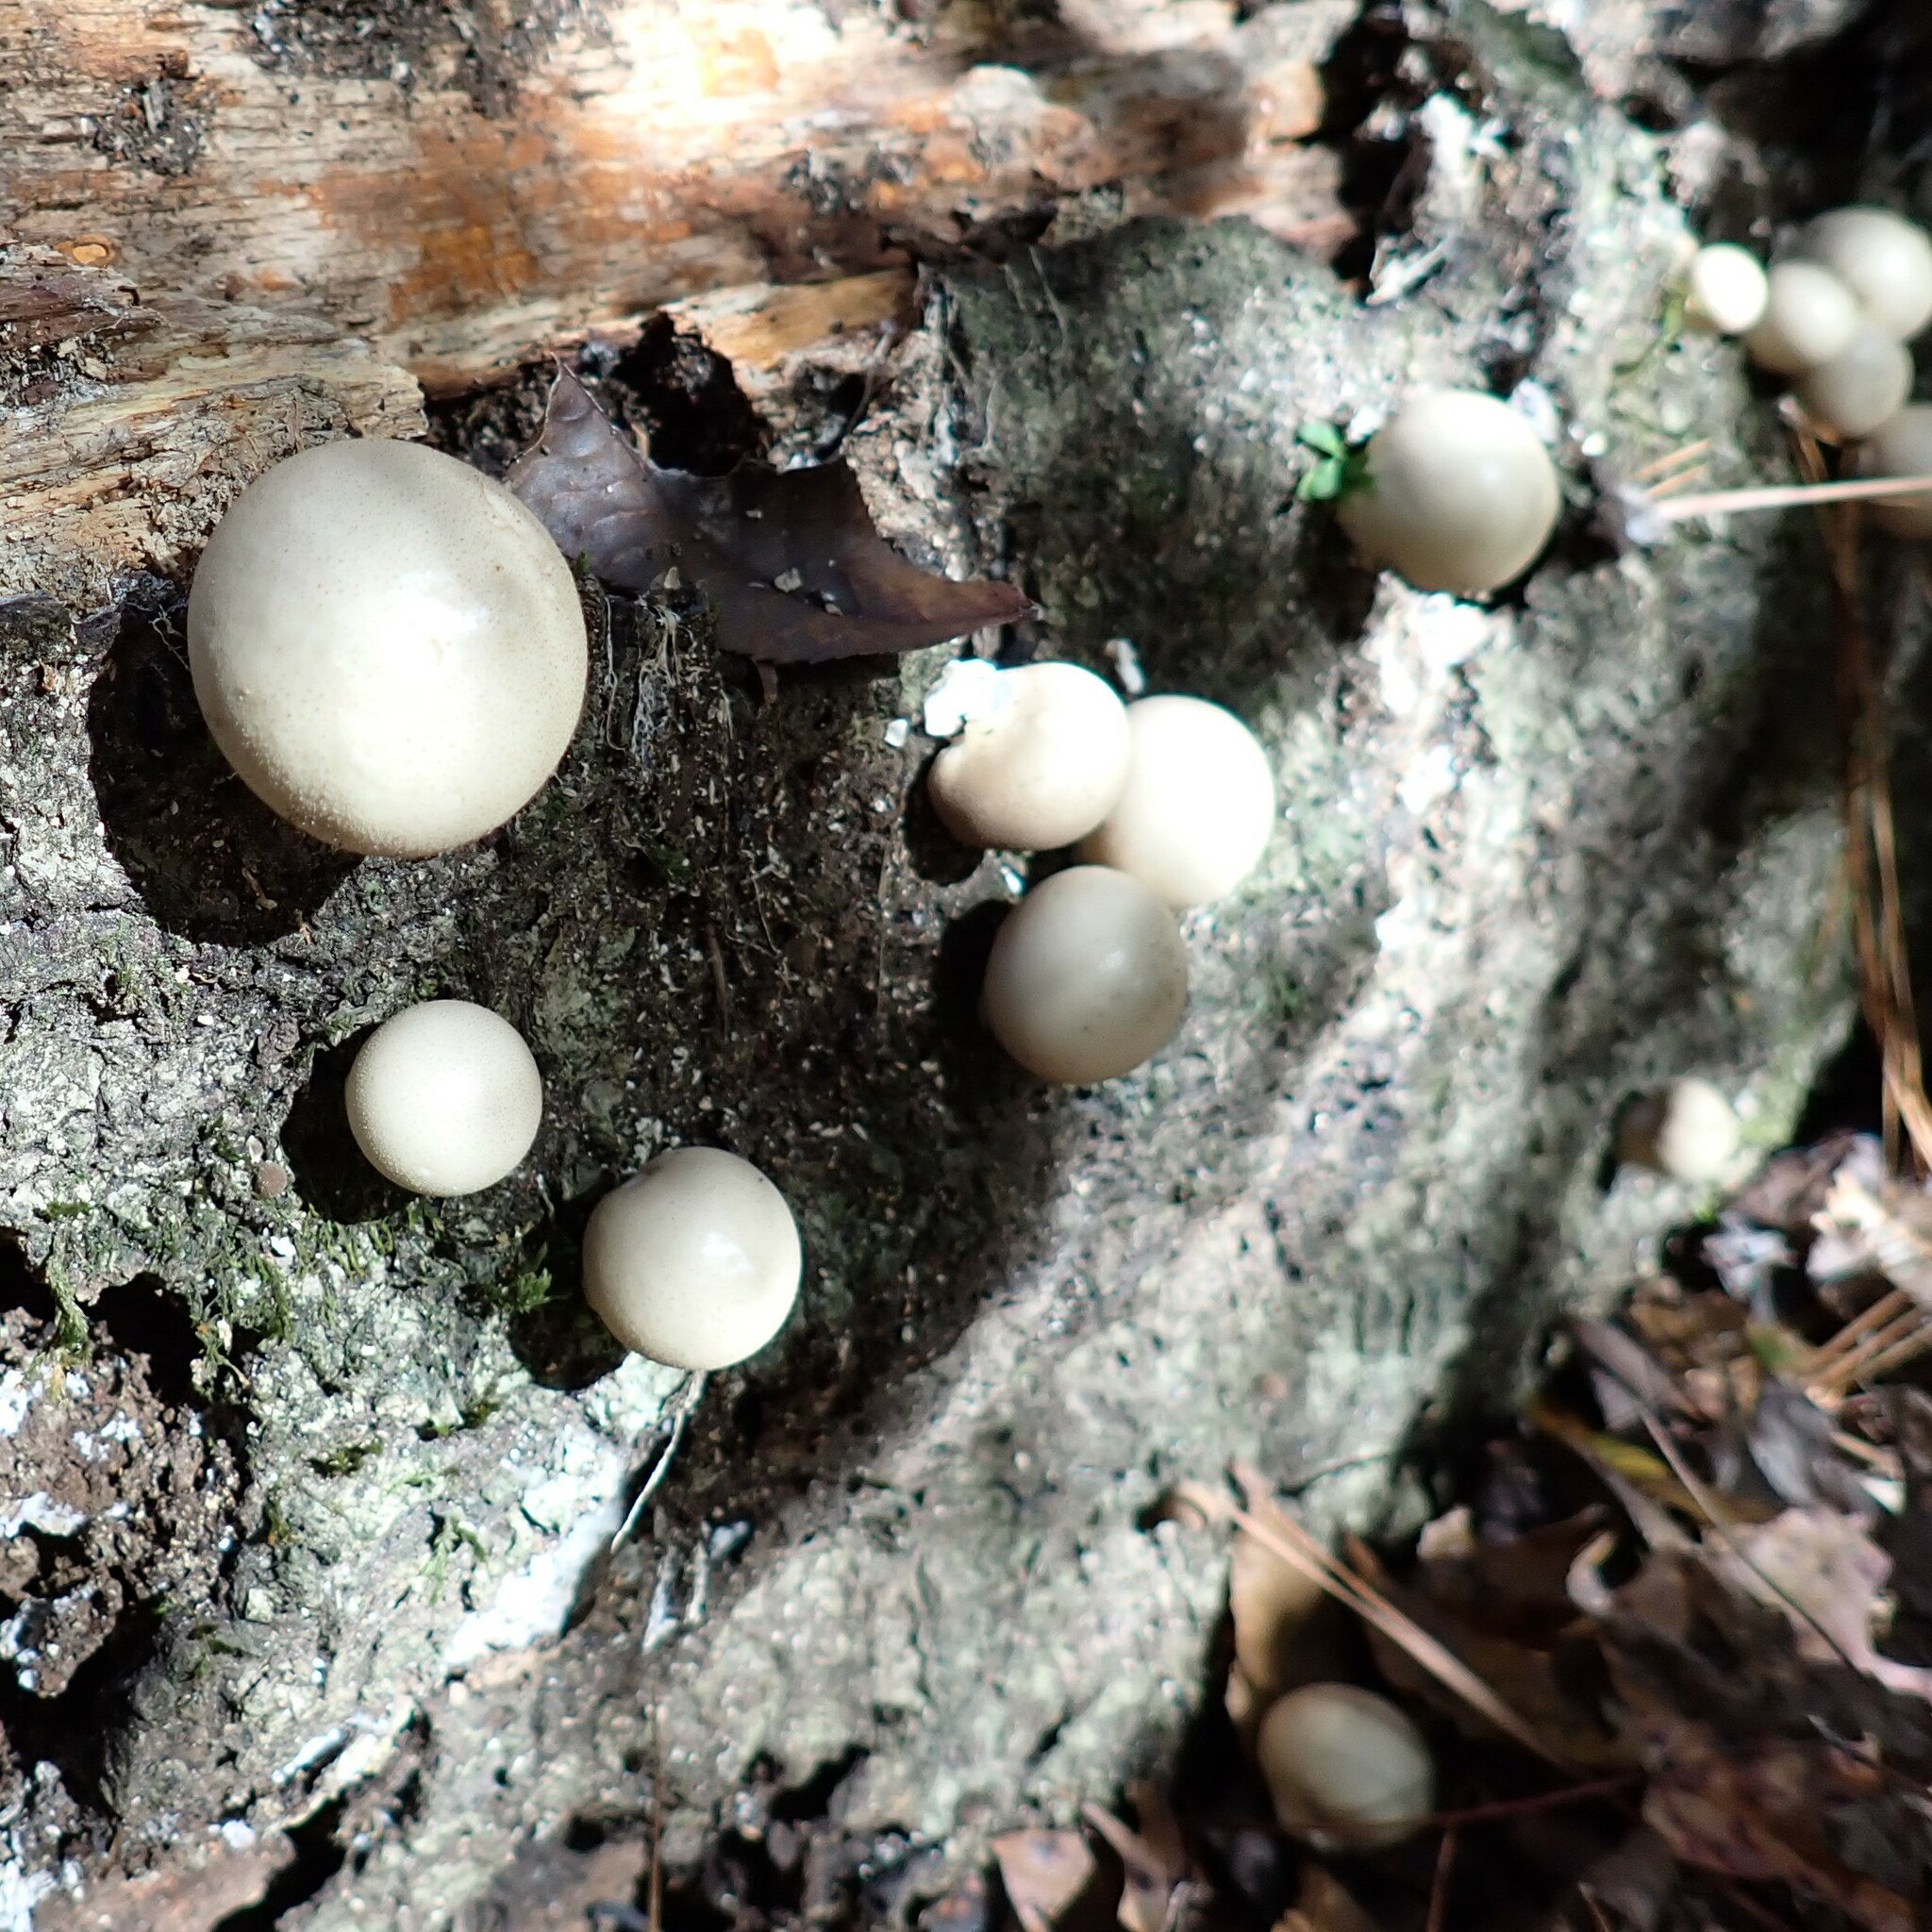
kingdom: Fungi
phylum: Basidiomycota
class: Agaricomycetes
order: Agaricales
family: Lycoperdaceae
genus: Apioperdon
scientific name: Apioperdon pyriforme
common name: Pear-shaped puffball
